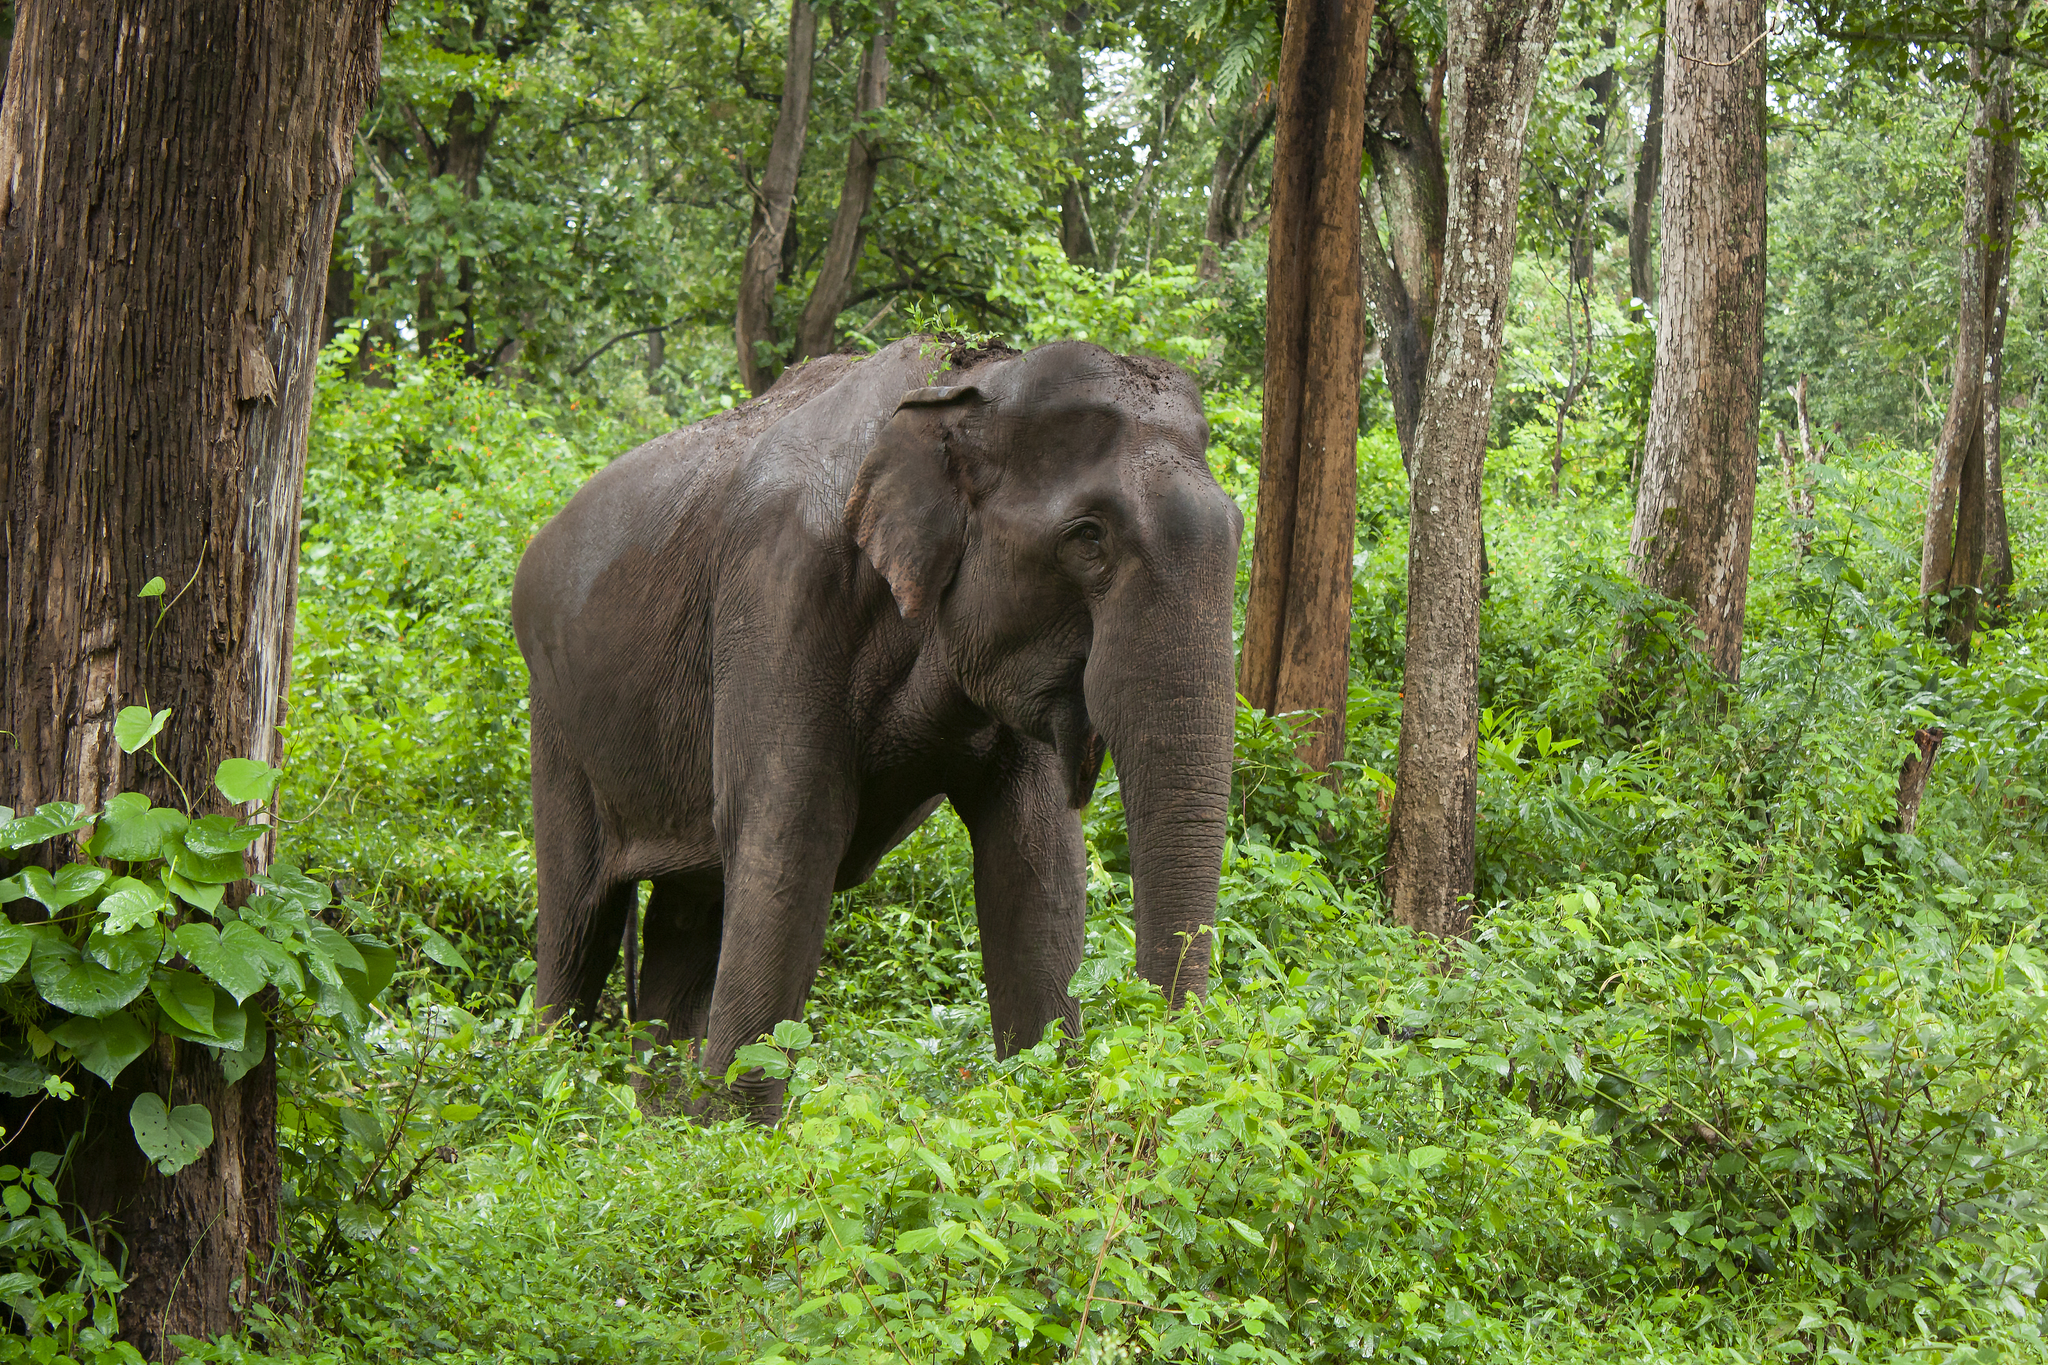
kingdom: Animalia
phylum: Chordata
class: Mammalia
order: Proboscidea
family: Elephantidae
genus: Elephas
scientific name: Elephas maximus
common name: Asian elephant
